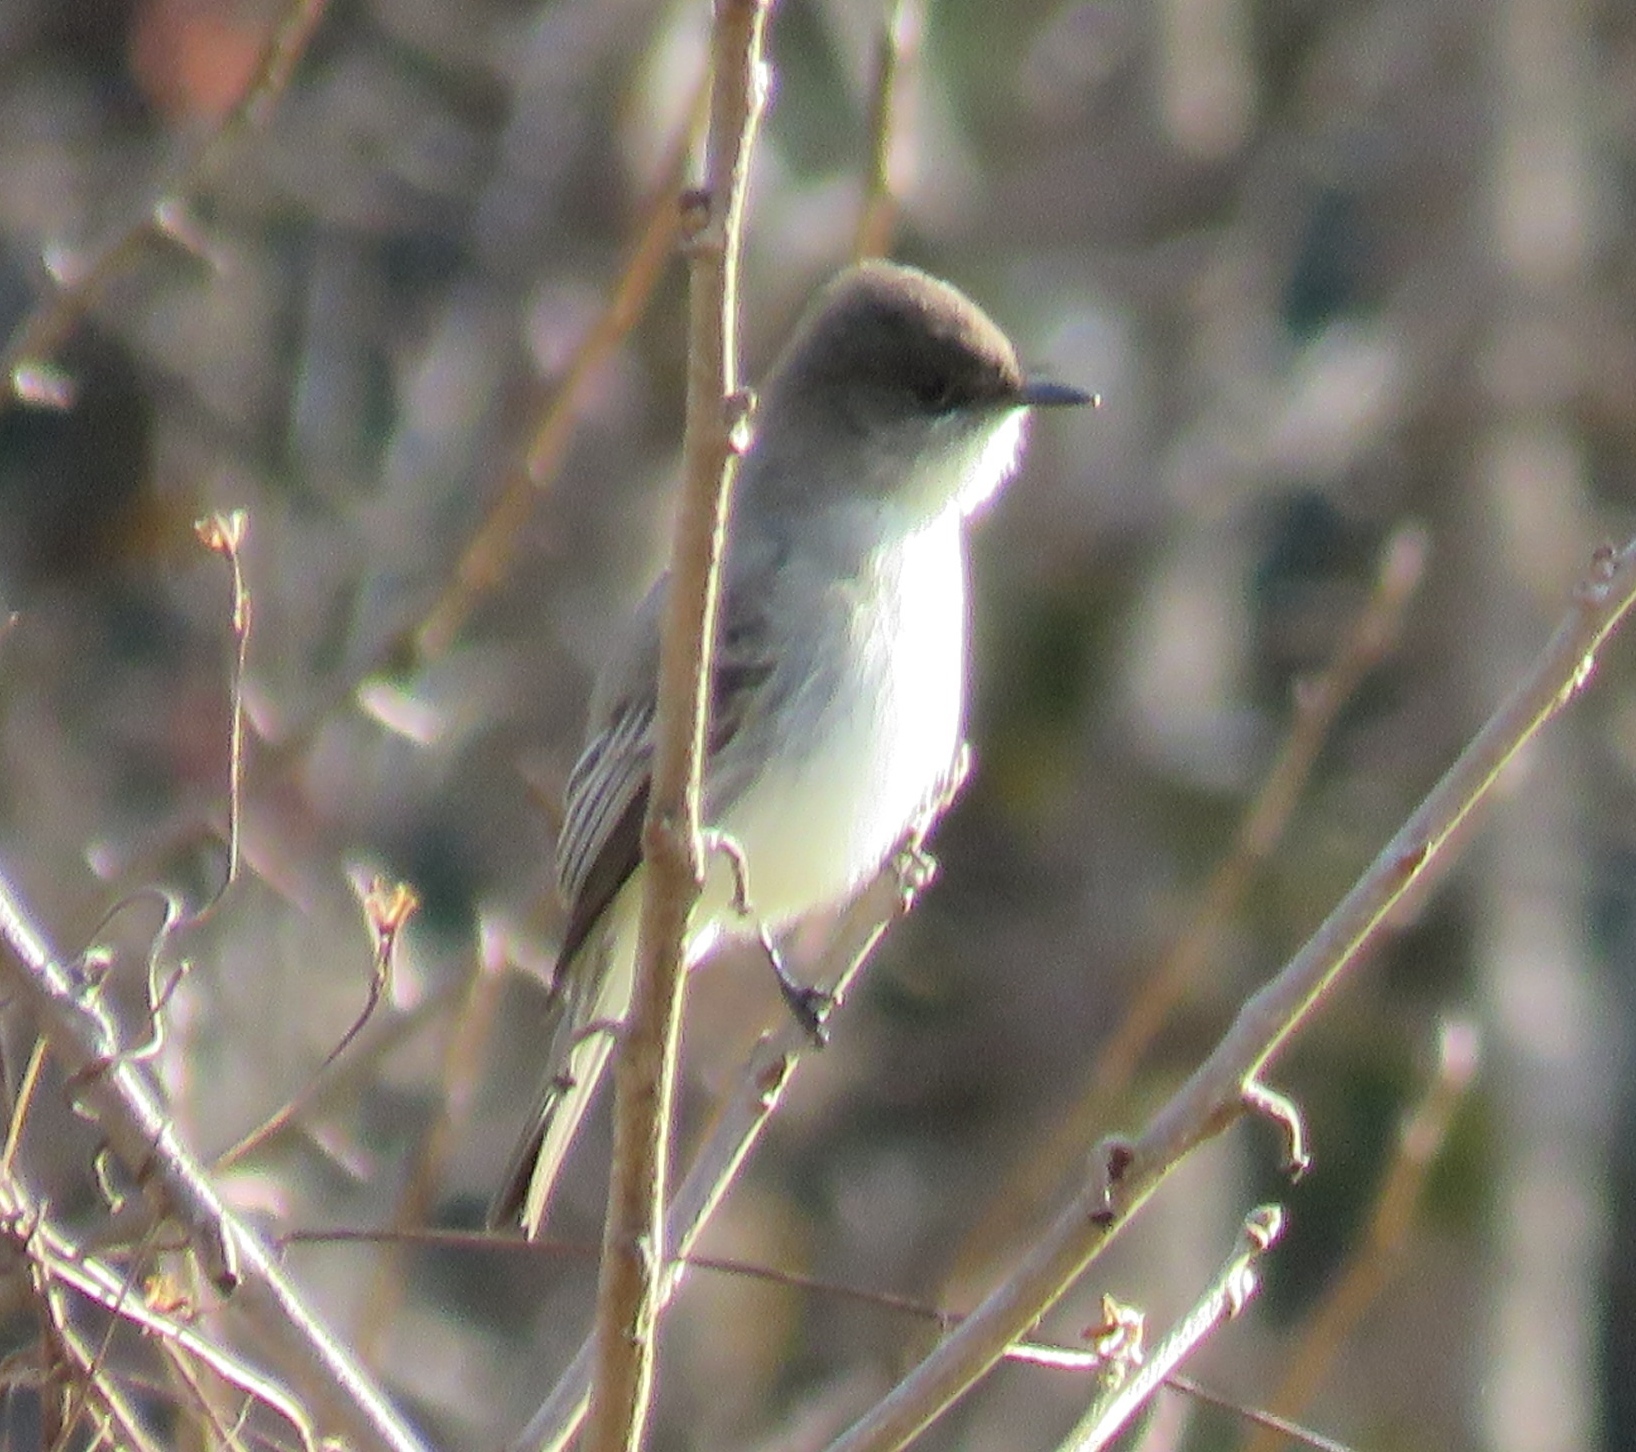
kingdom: Animalia
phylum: Chordata
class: Aves
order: Passeriformes
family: Tyrannidae
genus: Sayornis
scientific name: Sayornis phoebe
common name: Eastern phoebe
